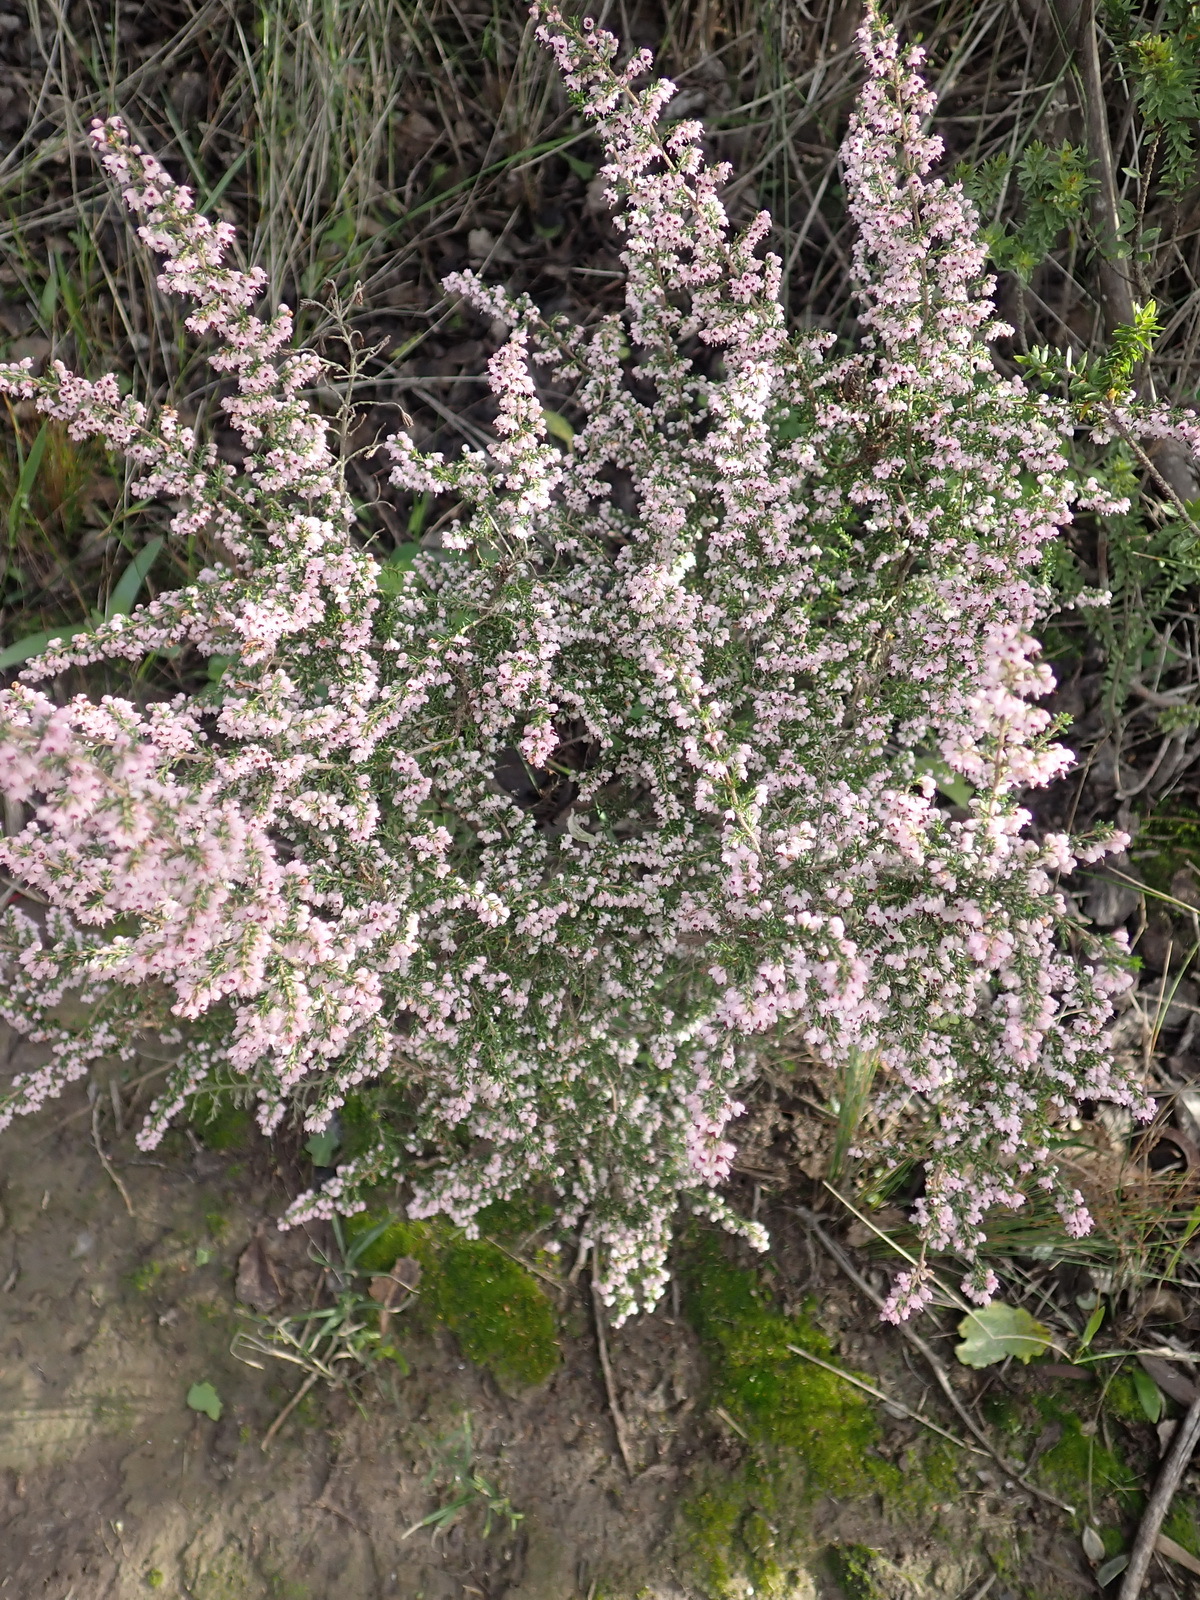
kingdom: Plantae
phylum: Tracheophyta
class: Magnoliopsida
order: Ericales
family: Ericaceae
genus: Erica
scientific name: Erica sparsa
